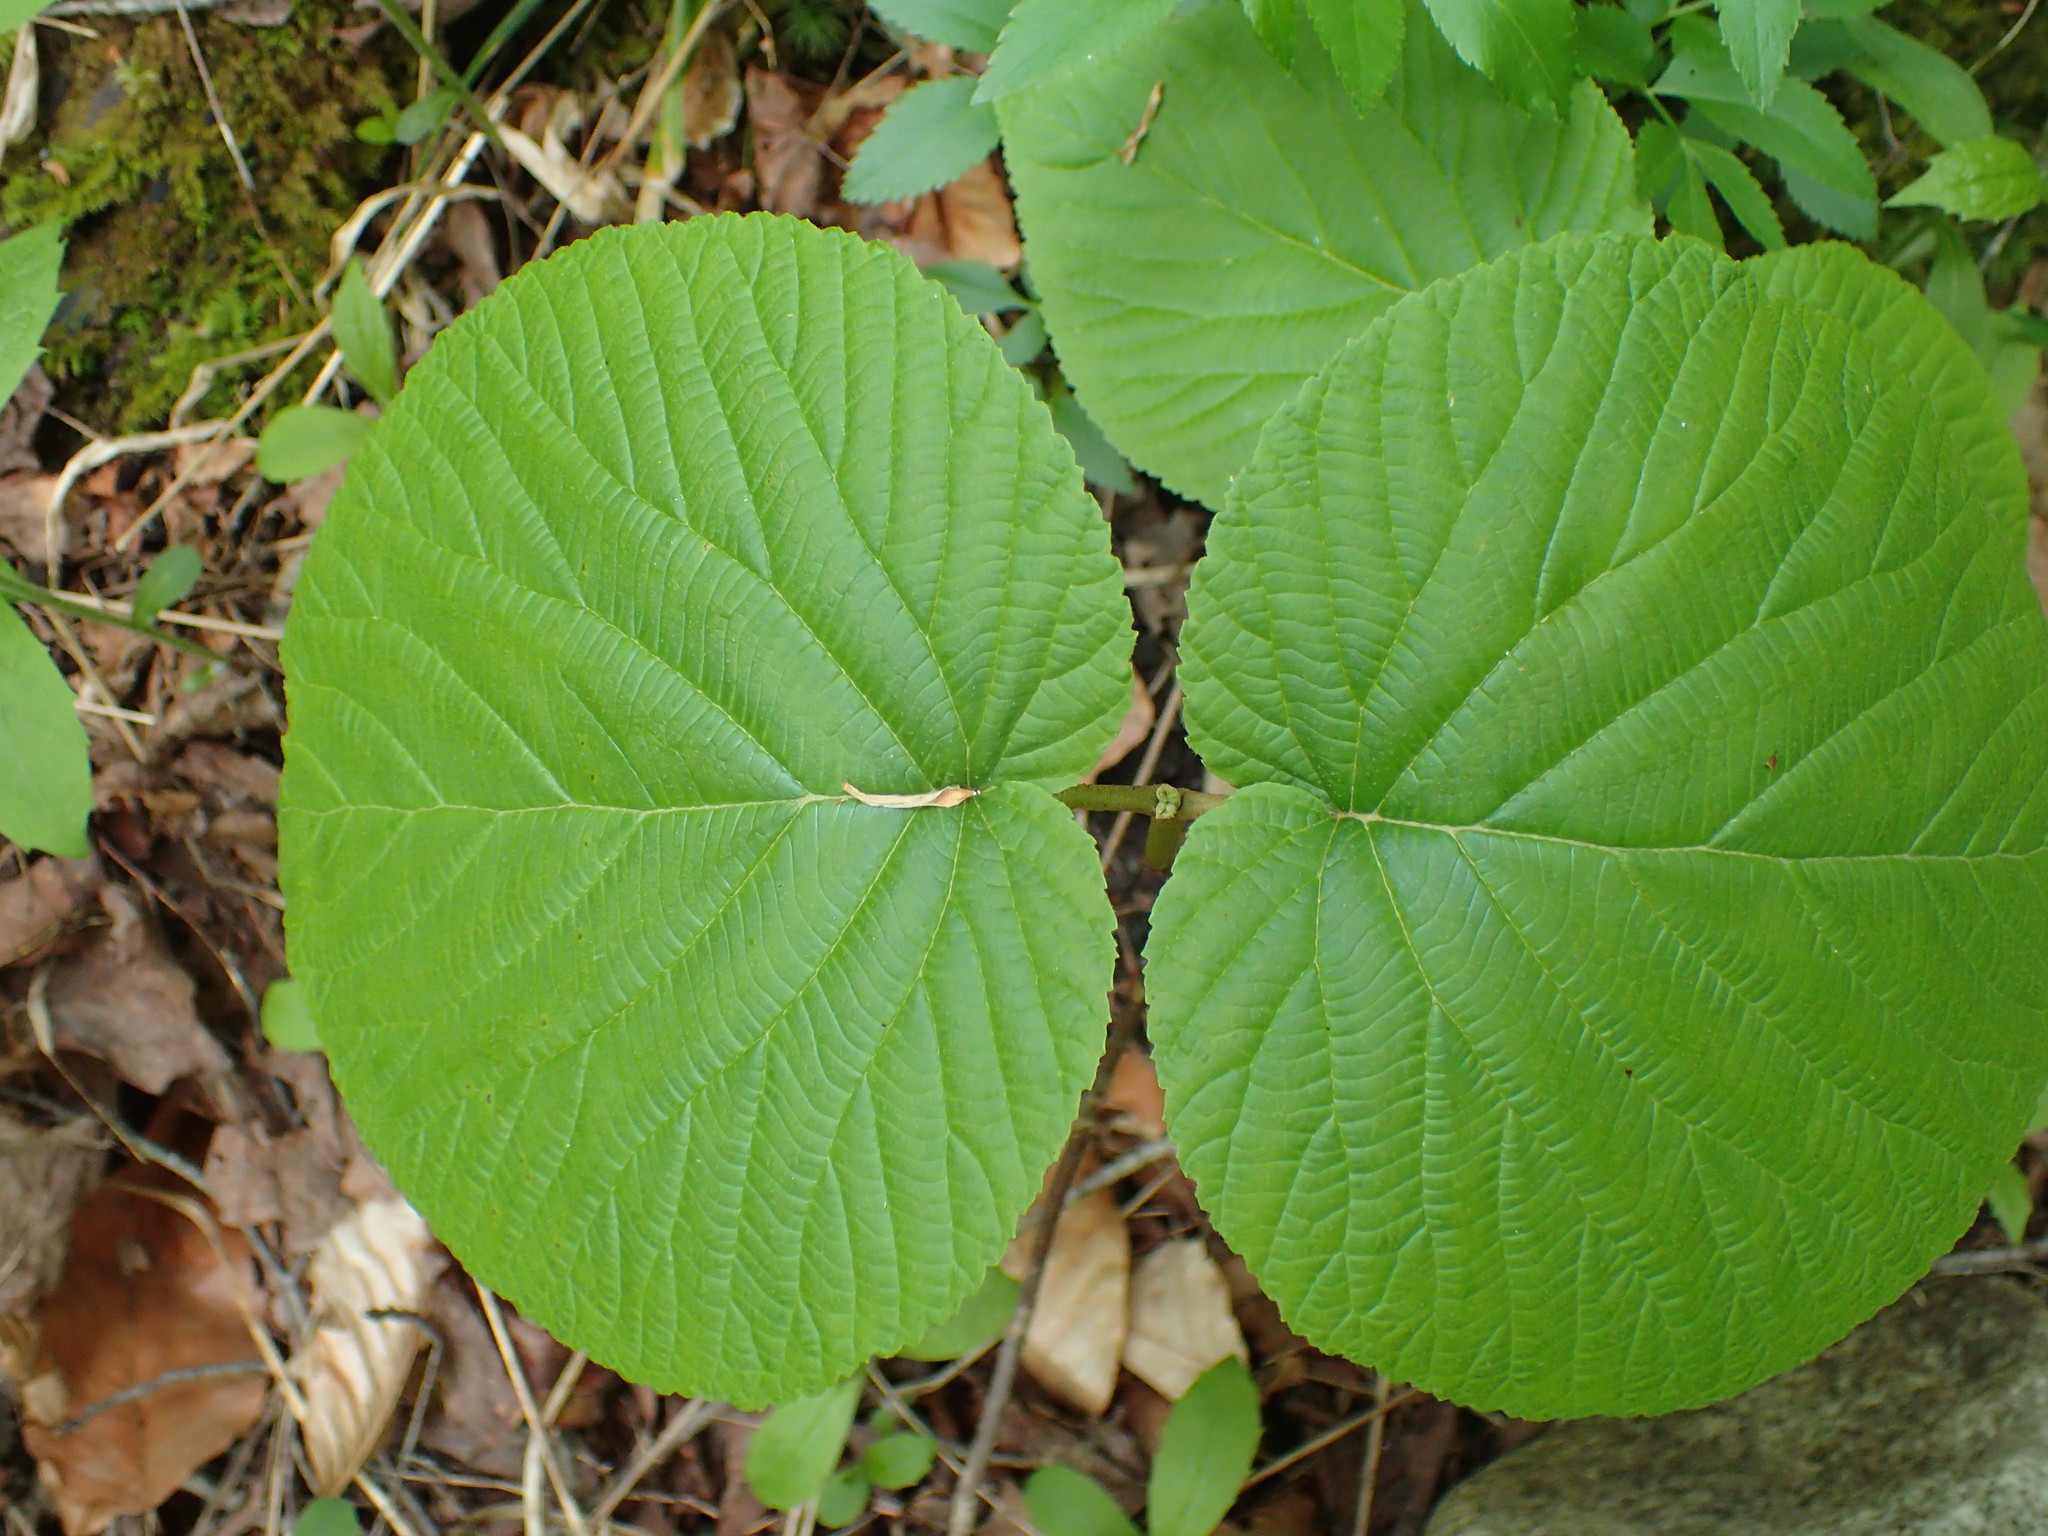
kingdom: Plantae
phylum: Tracheophyta
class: Magnoliopsida
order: Dipsacales
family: Viburnaceae
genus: Viburnum
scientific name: Viburnum lantanoides
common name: Hobblebush
